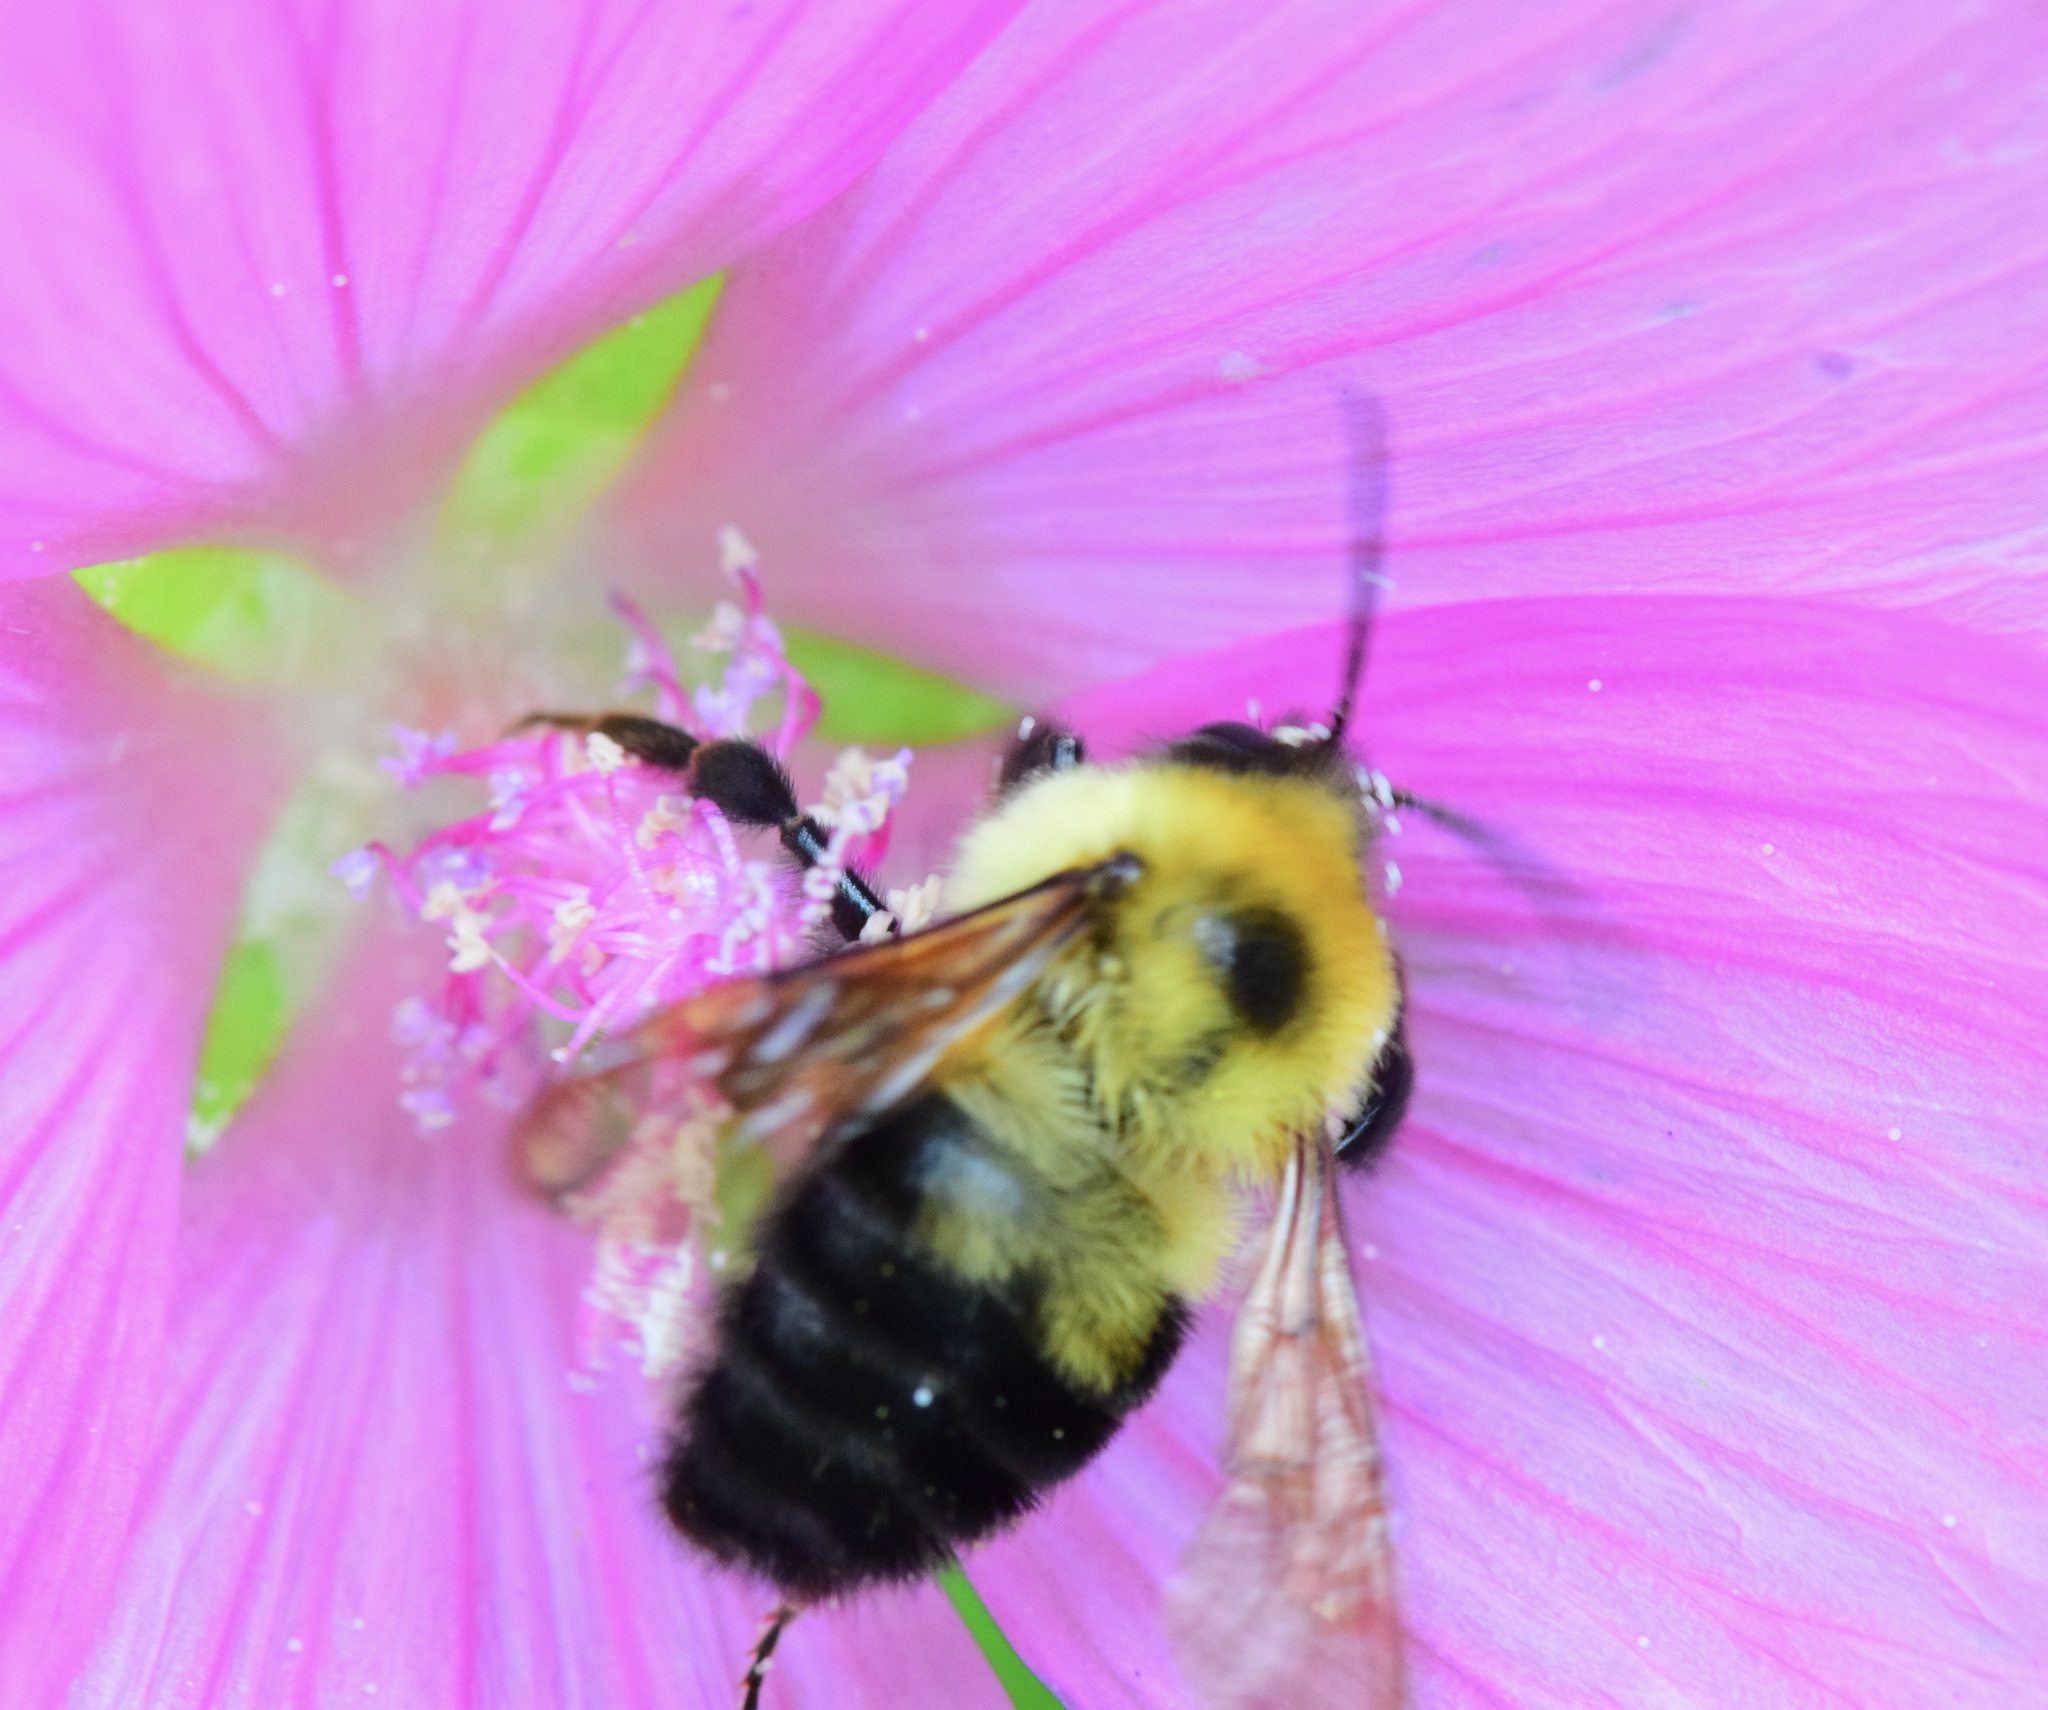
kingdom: Animalia
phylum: Arthropoda
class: Insecta
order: Hymenoptera
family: Apidae
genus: Bombus
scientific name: Bombus bimaculatus
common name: Two-spotted bumble bee
